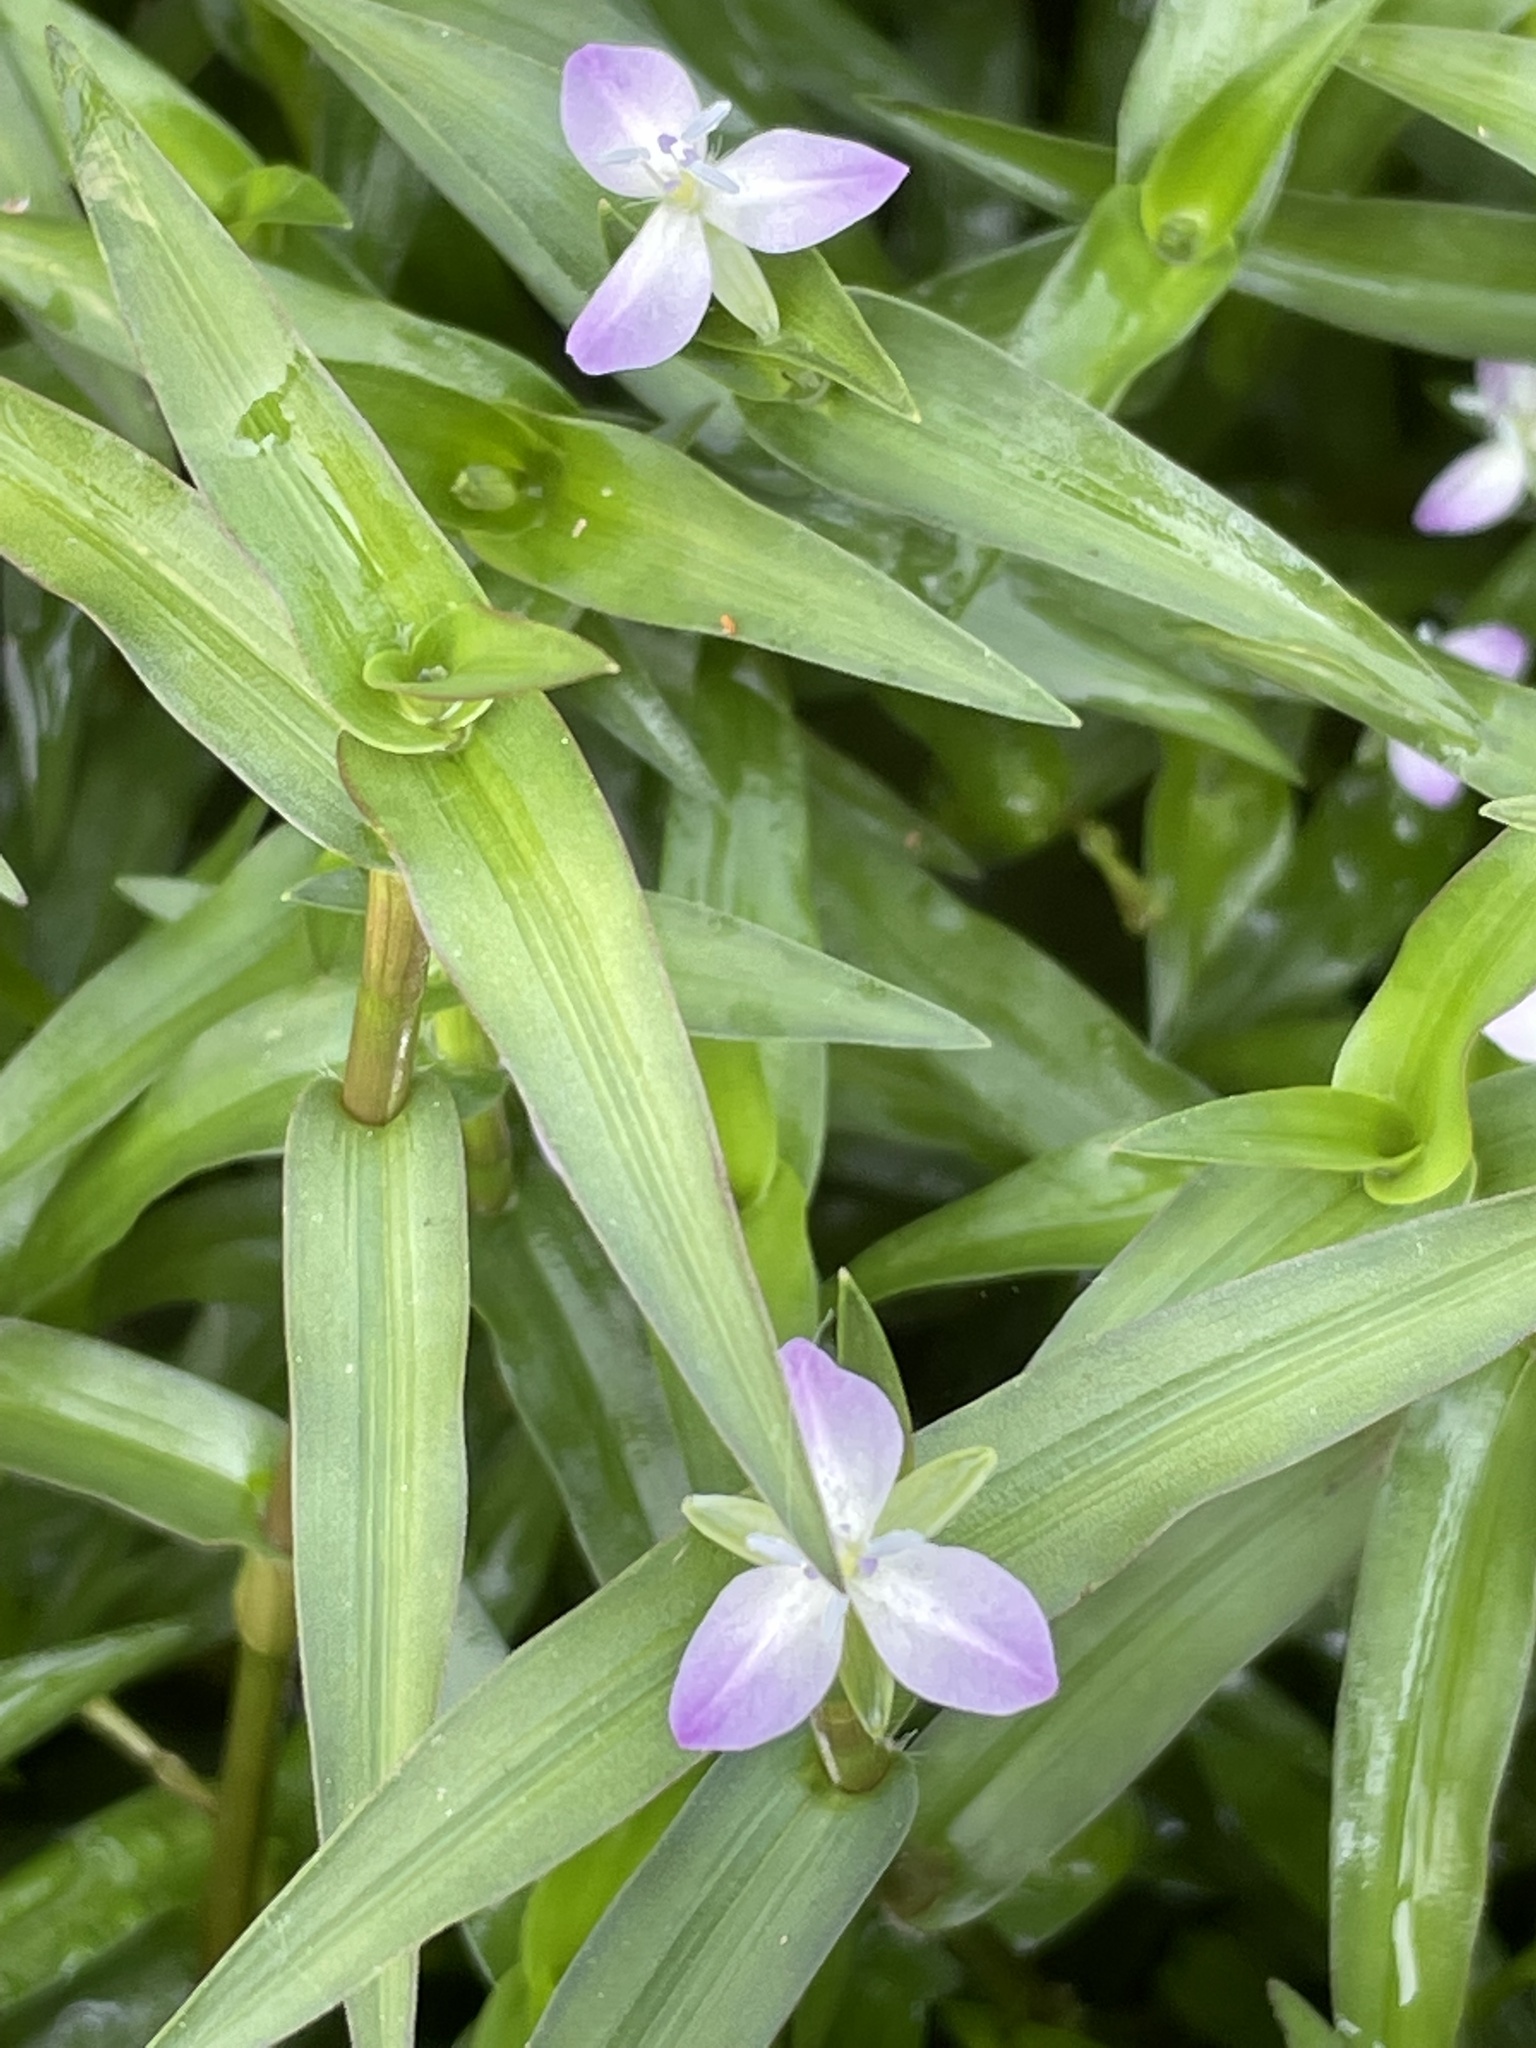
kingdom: Plantae
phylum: Tracheophyta
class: Liliopsida
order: Commelinales
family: Commelinaceae
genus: Murdannia
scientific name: Murdannia keisak
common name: Wartremoving herb
